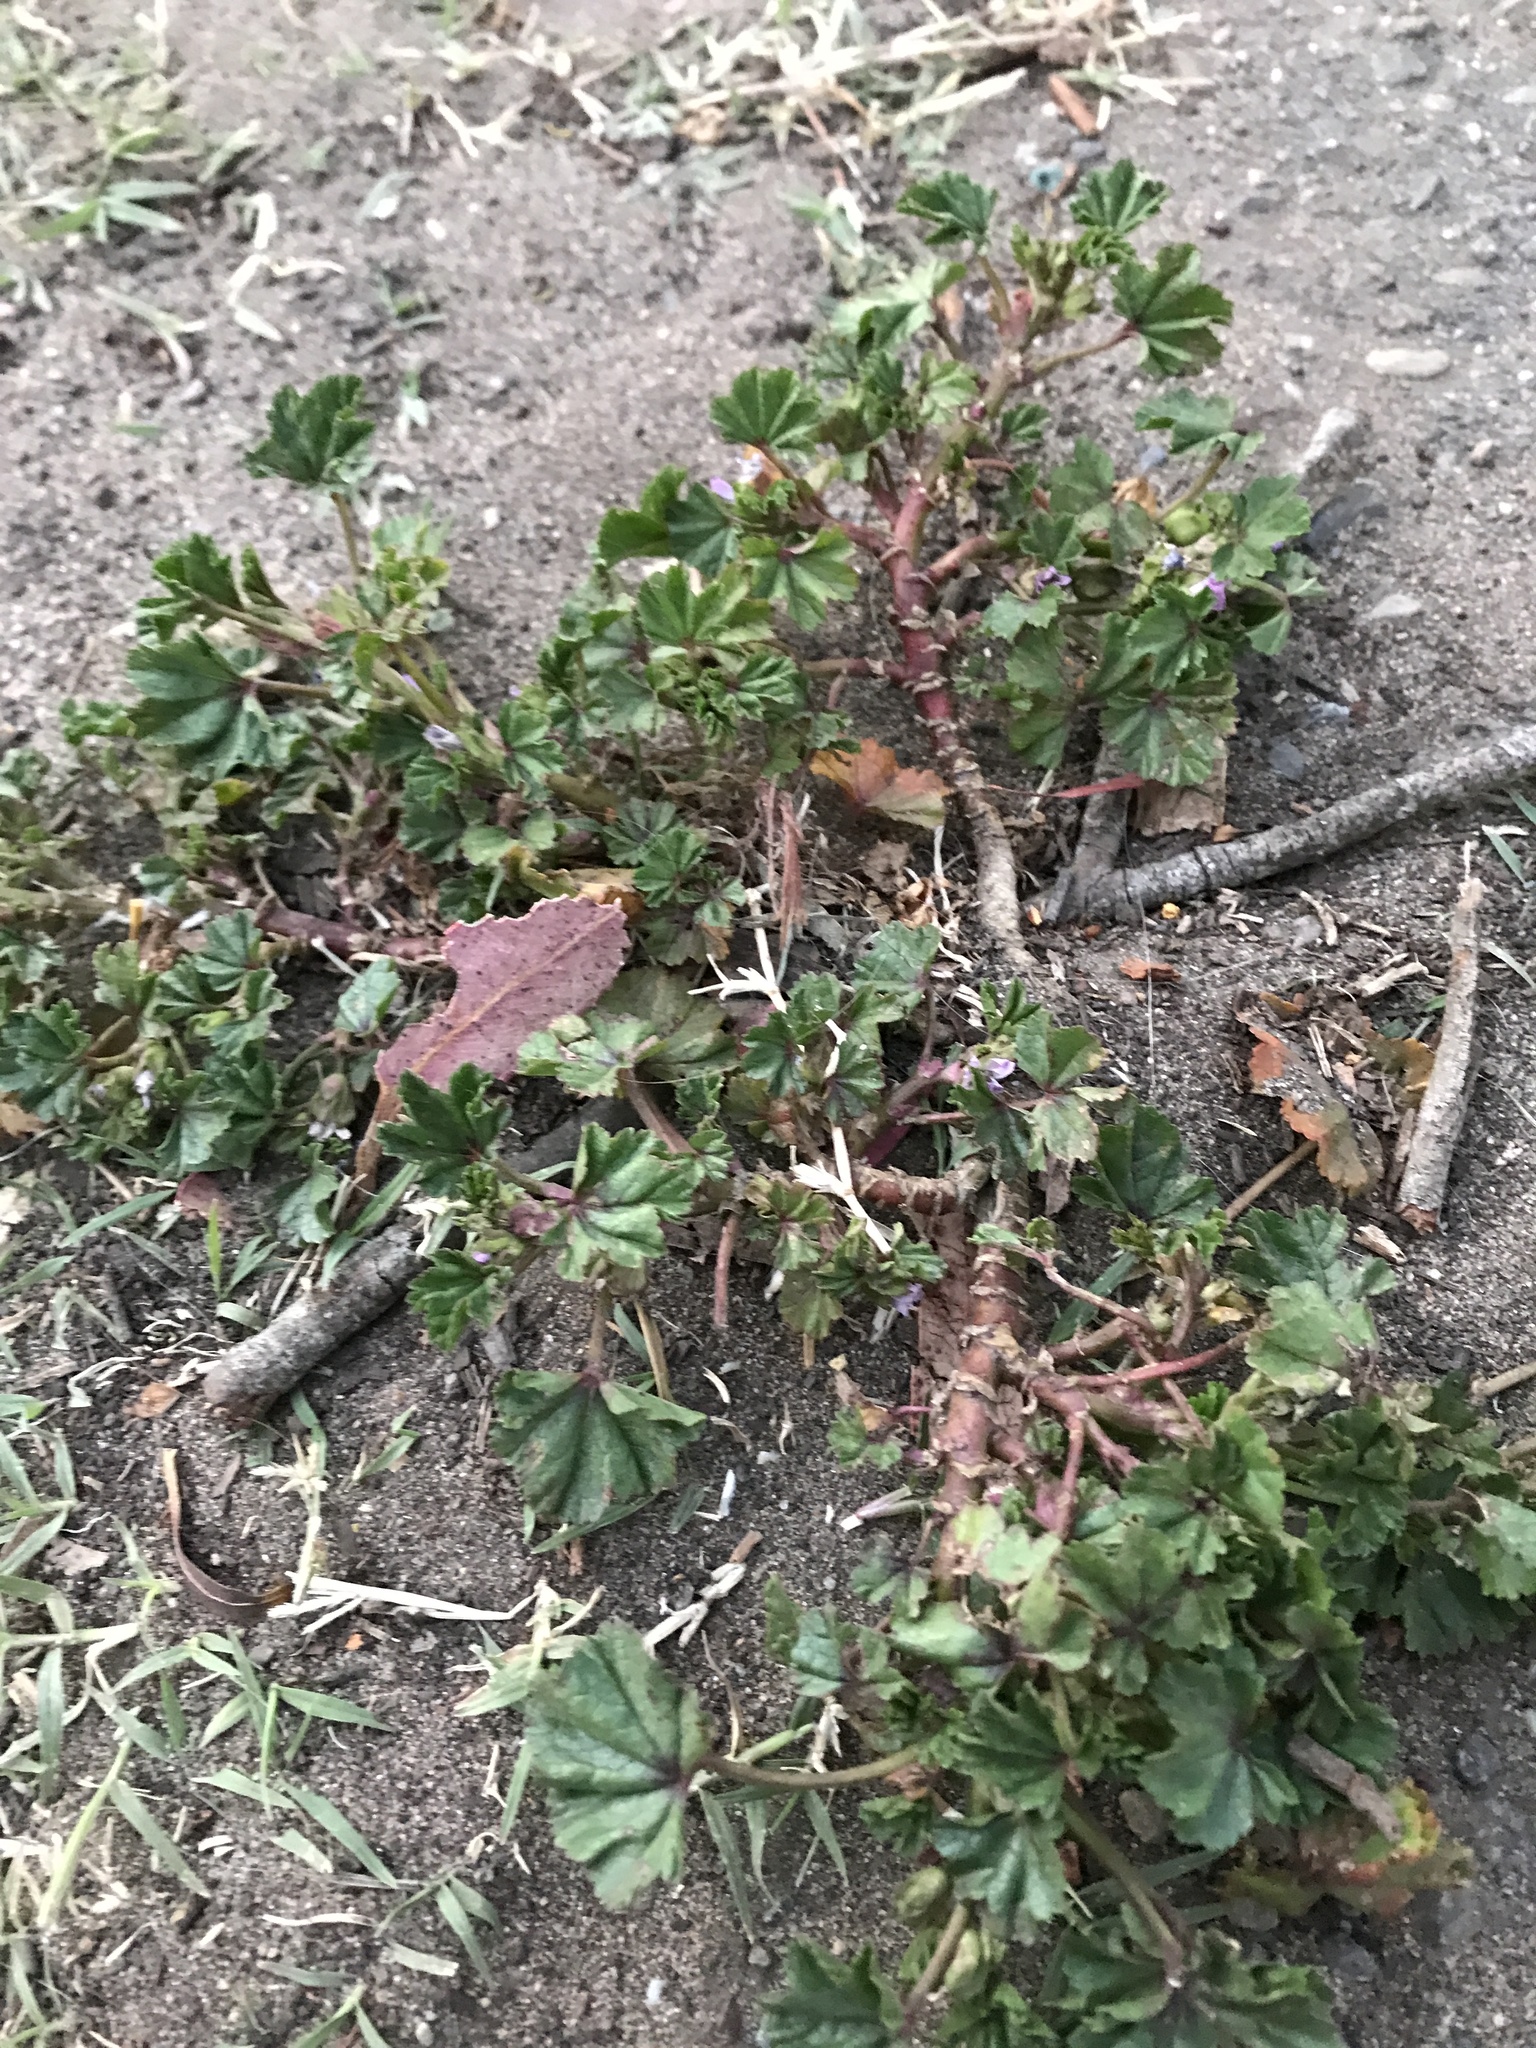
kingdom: Plantae
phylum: Tracheophyta
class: Magnoliopsida
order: Malvales
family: Malvaceae
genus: Malva
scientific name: Malva
